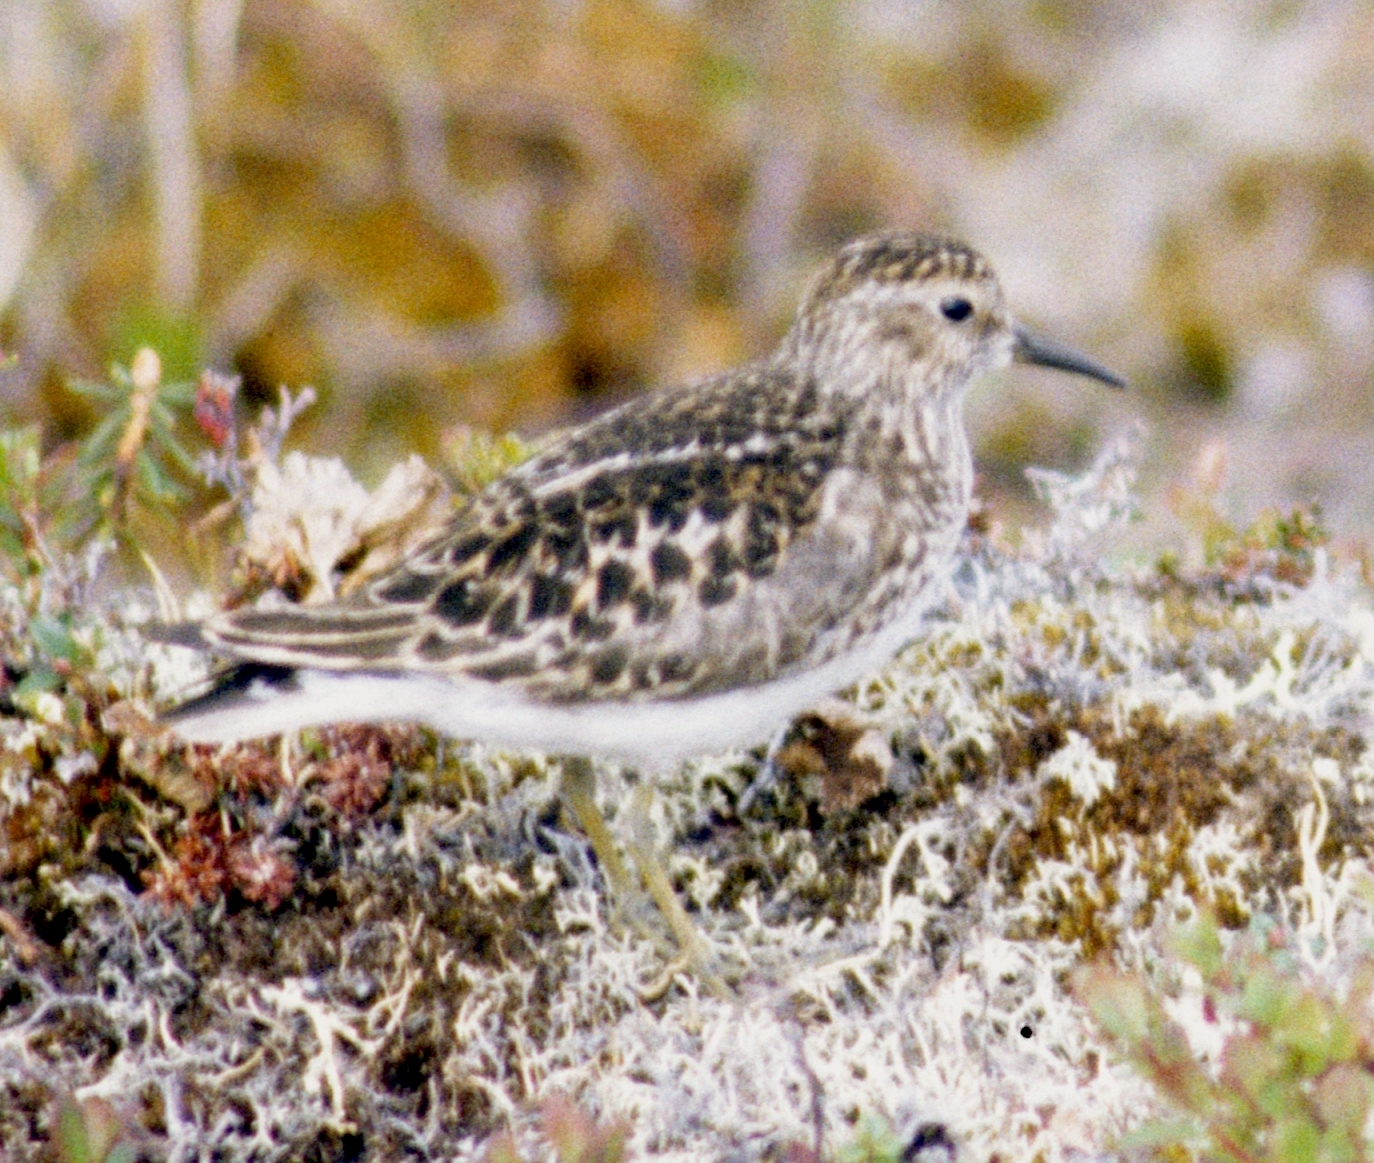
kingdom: Animalia
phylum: Chordata
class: Aves
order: Charadriiformes
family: Scolopacidae
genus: Calidris
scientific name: Calidris minutilla
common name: Least sandpiper
